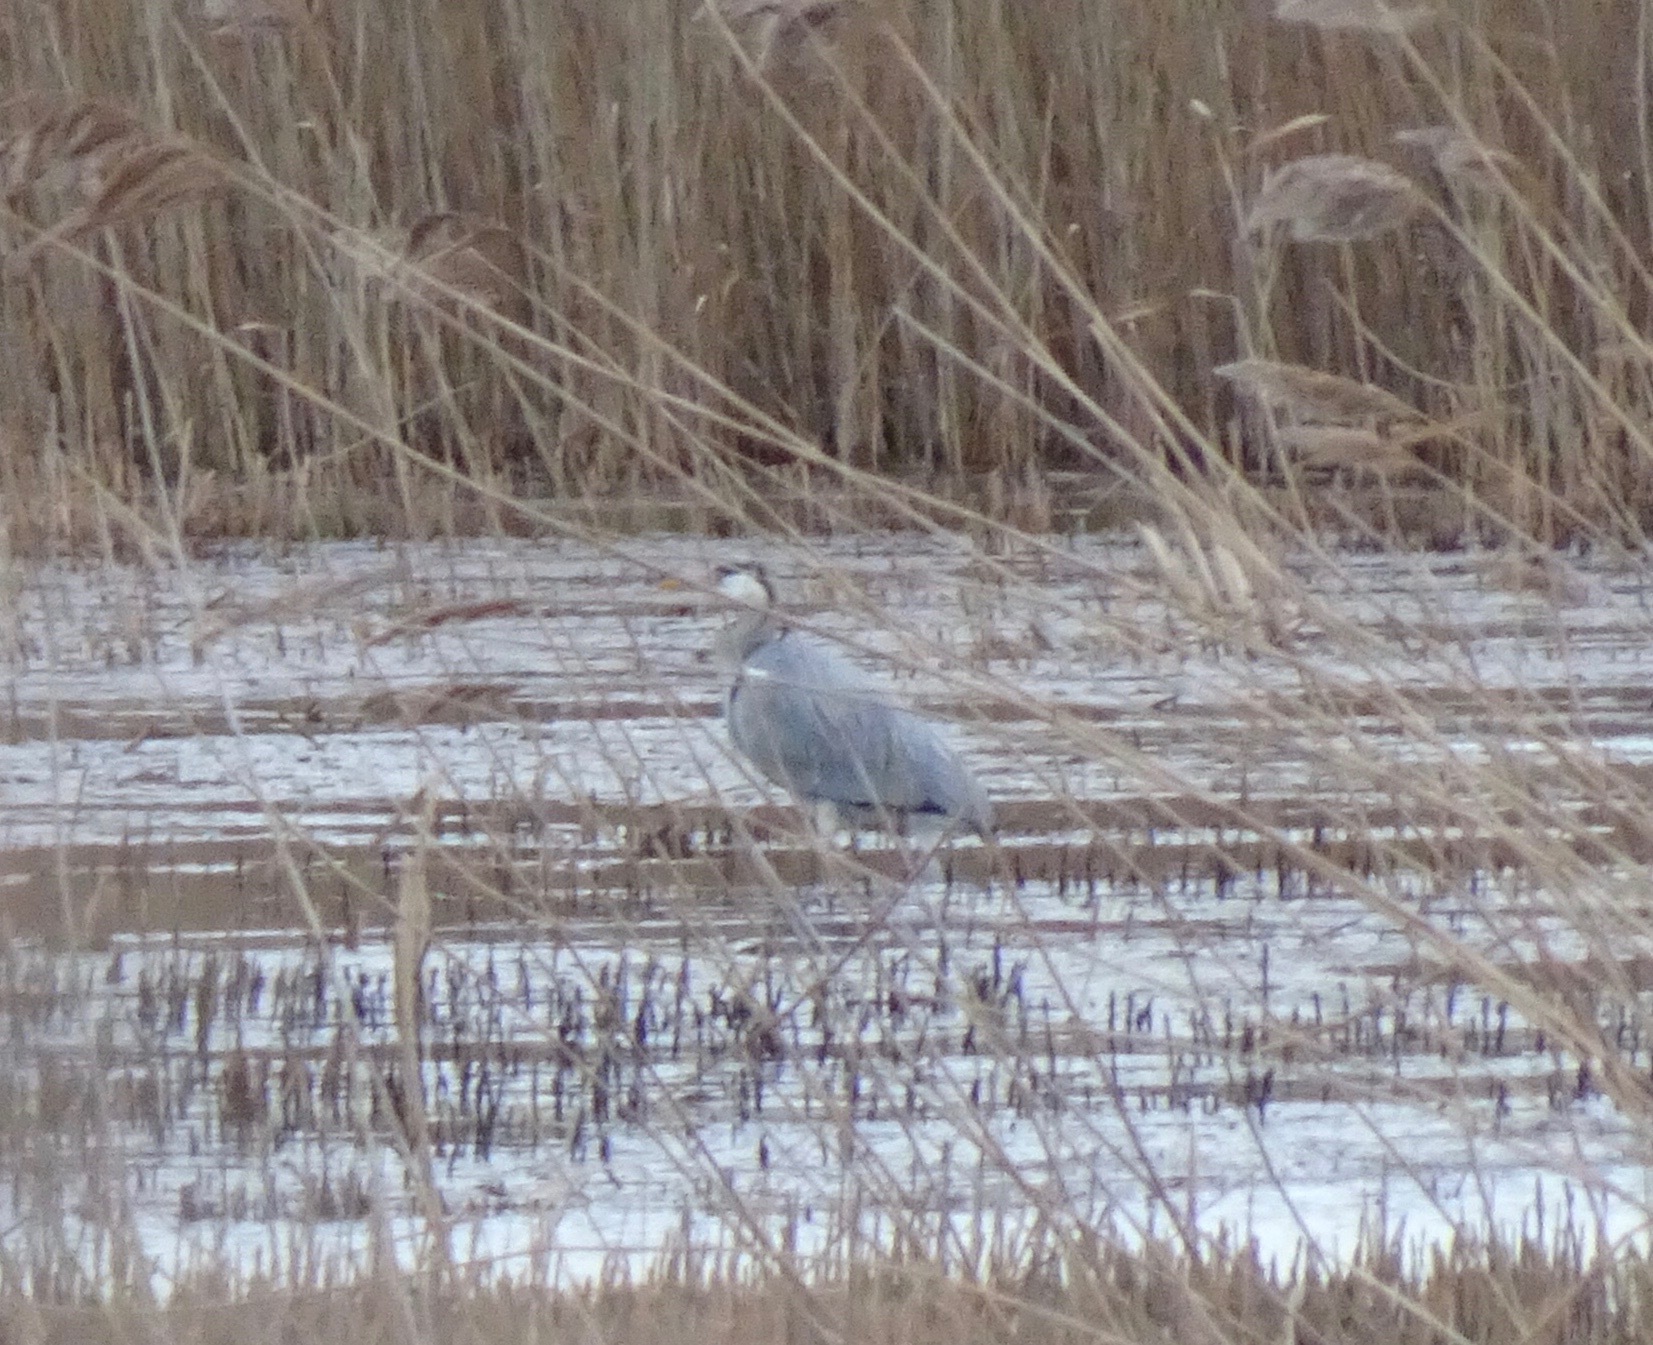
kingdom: Animalia
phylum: Chordata
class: Aves
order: Pelecaniformes
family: Ardeidae
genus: Ardea
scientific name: Ardea cinerea
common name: Grey heron
